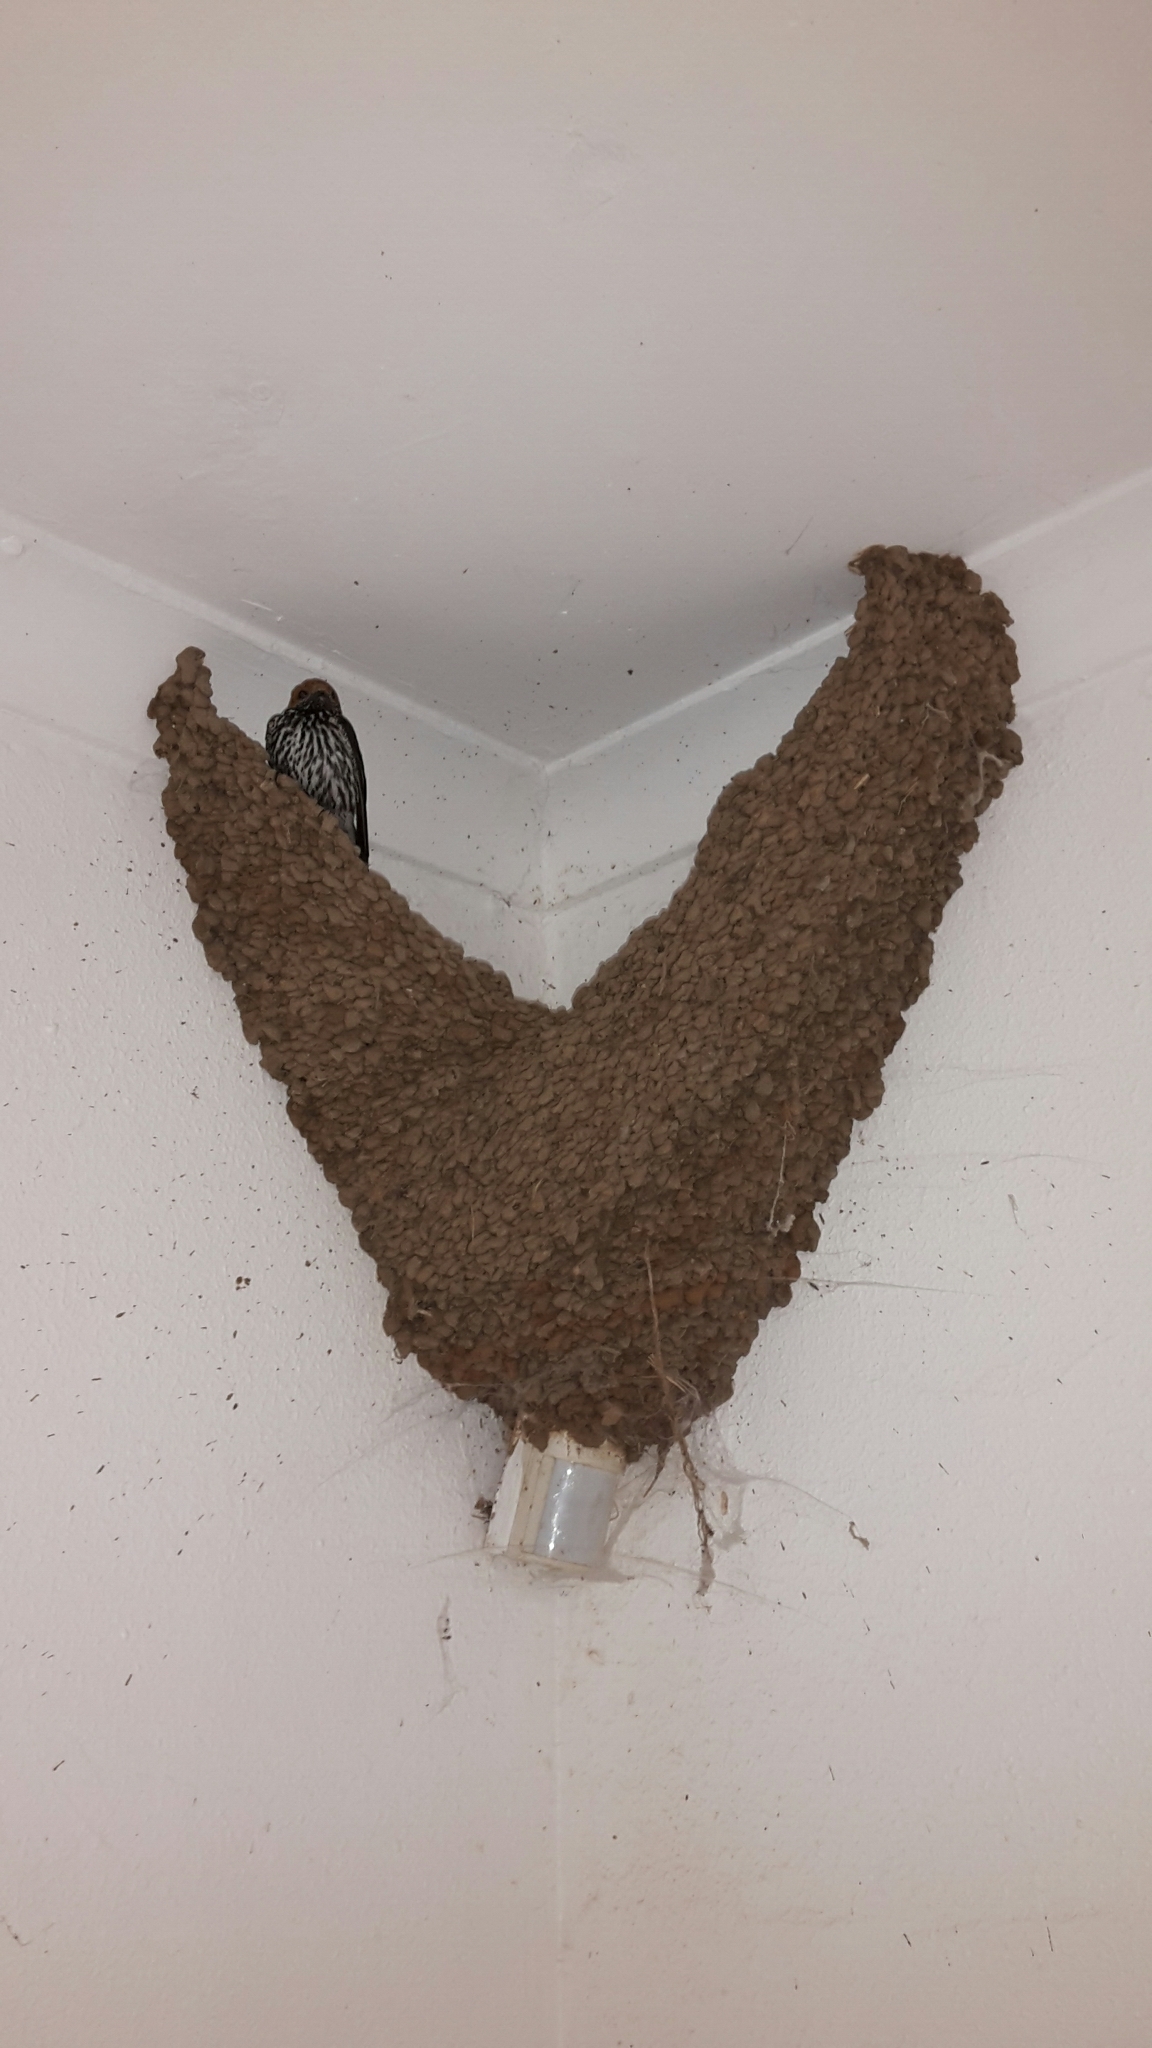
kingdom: Animalia
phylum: Chordata
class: Aves
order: Passeriformes
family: Hirundinidae
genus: Cecropis
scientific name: Cecropis abyssinica
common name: Lesser striped-swallow
